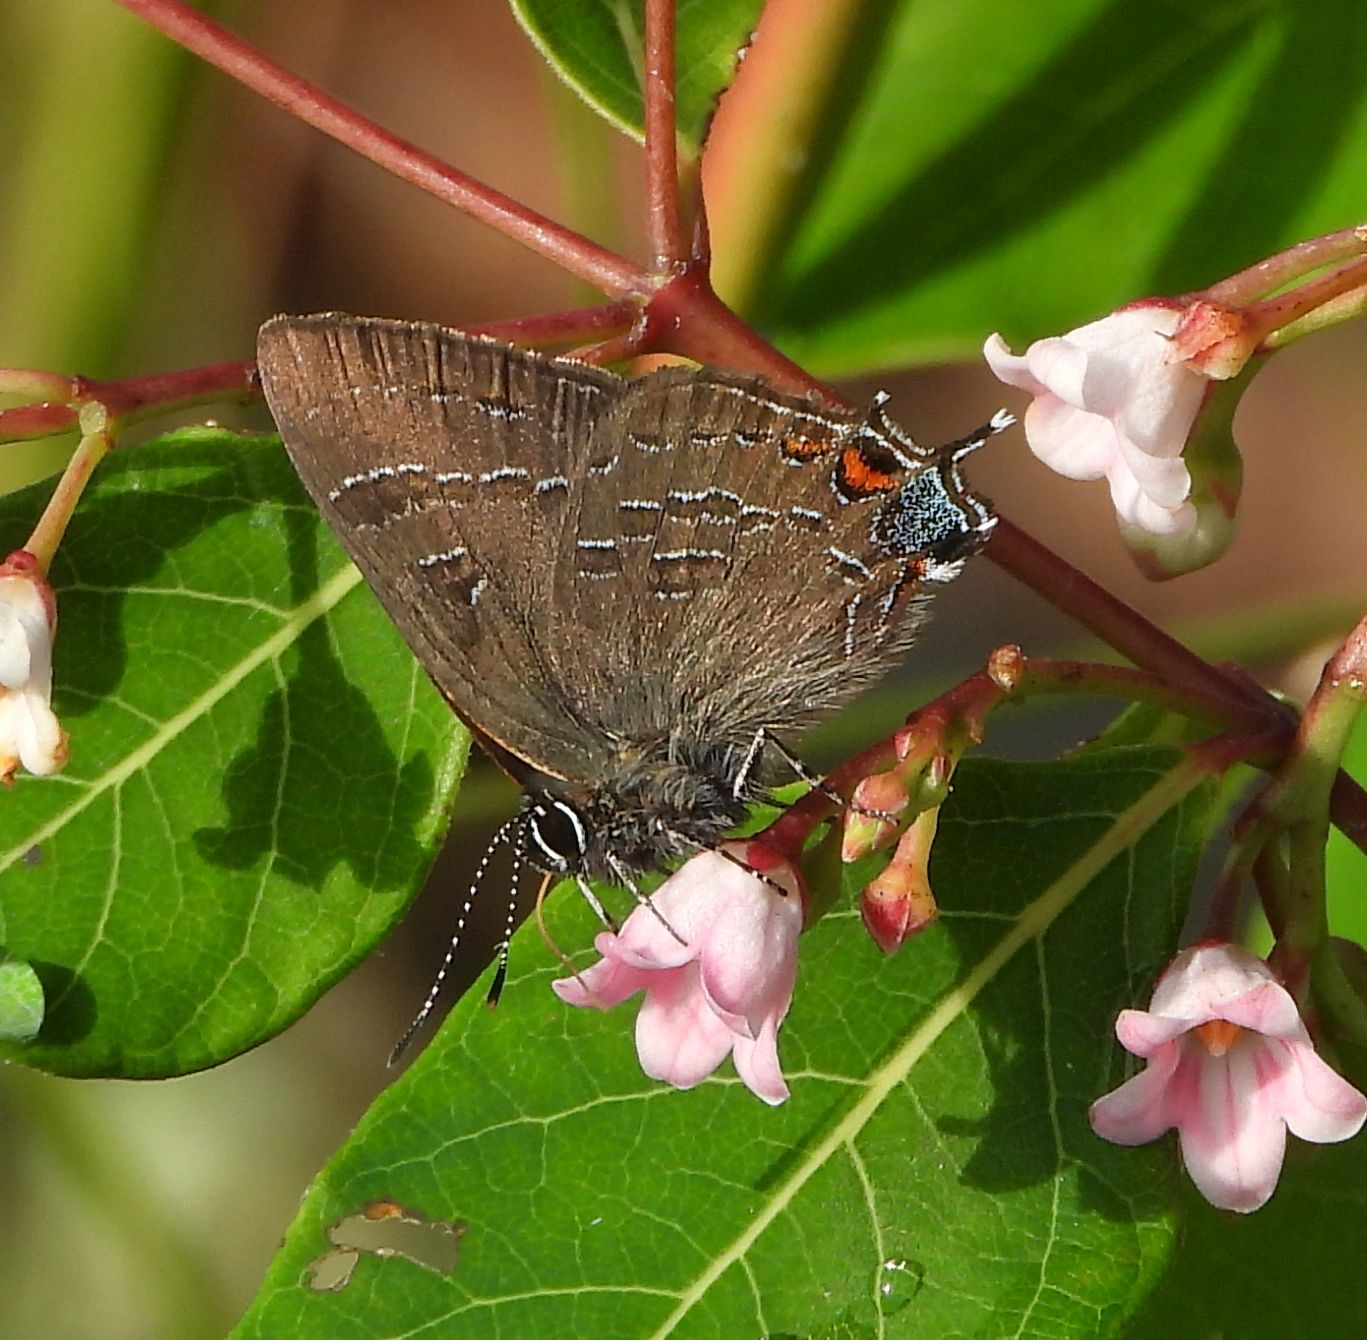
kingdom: Animalia
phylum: Arthropoda
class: Insecta
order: Lepidoptera
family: Lycaenidae
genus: Satyrium
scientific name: Satyrium calanus
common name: Banded hairstreak
